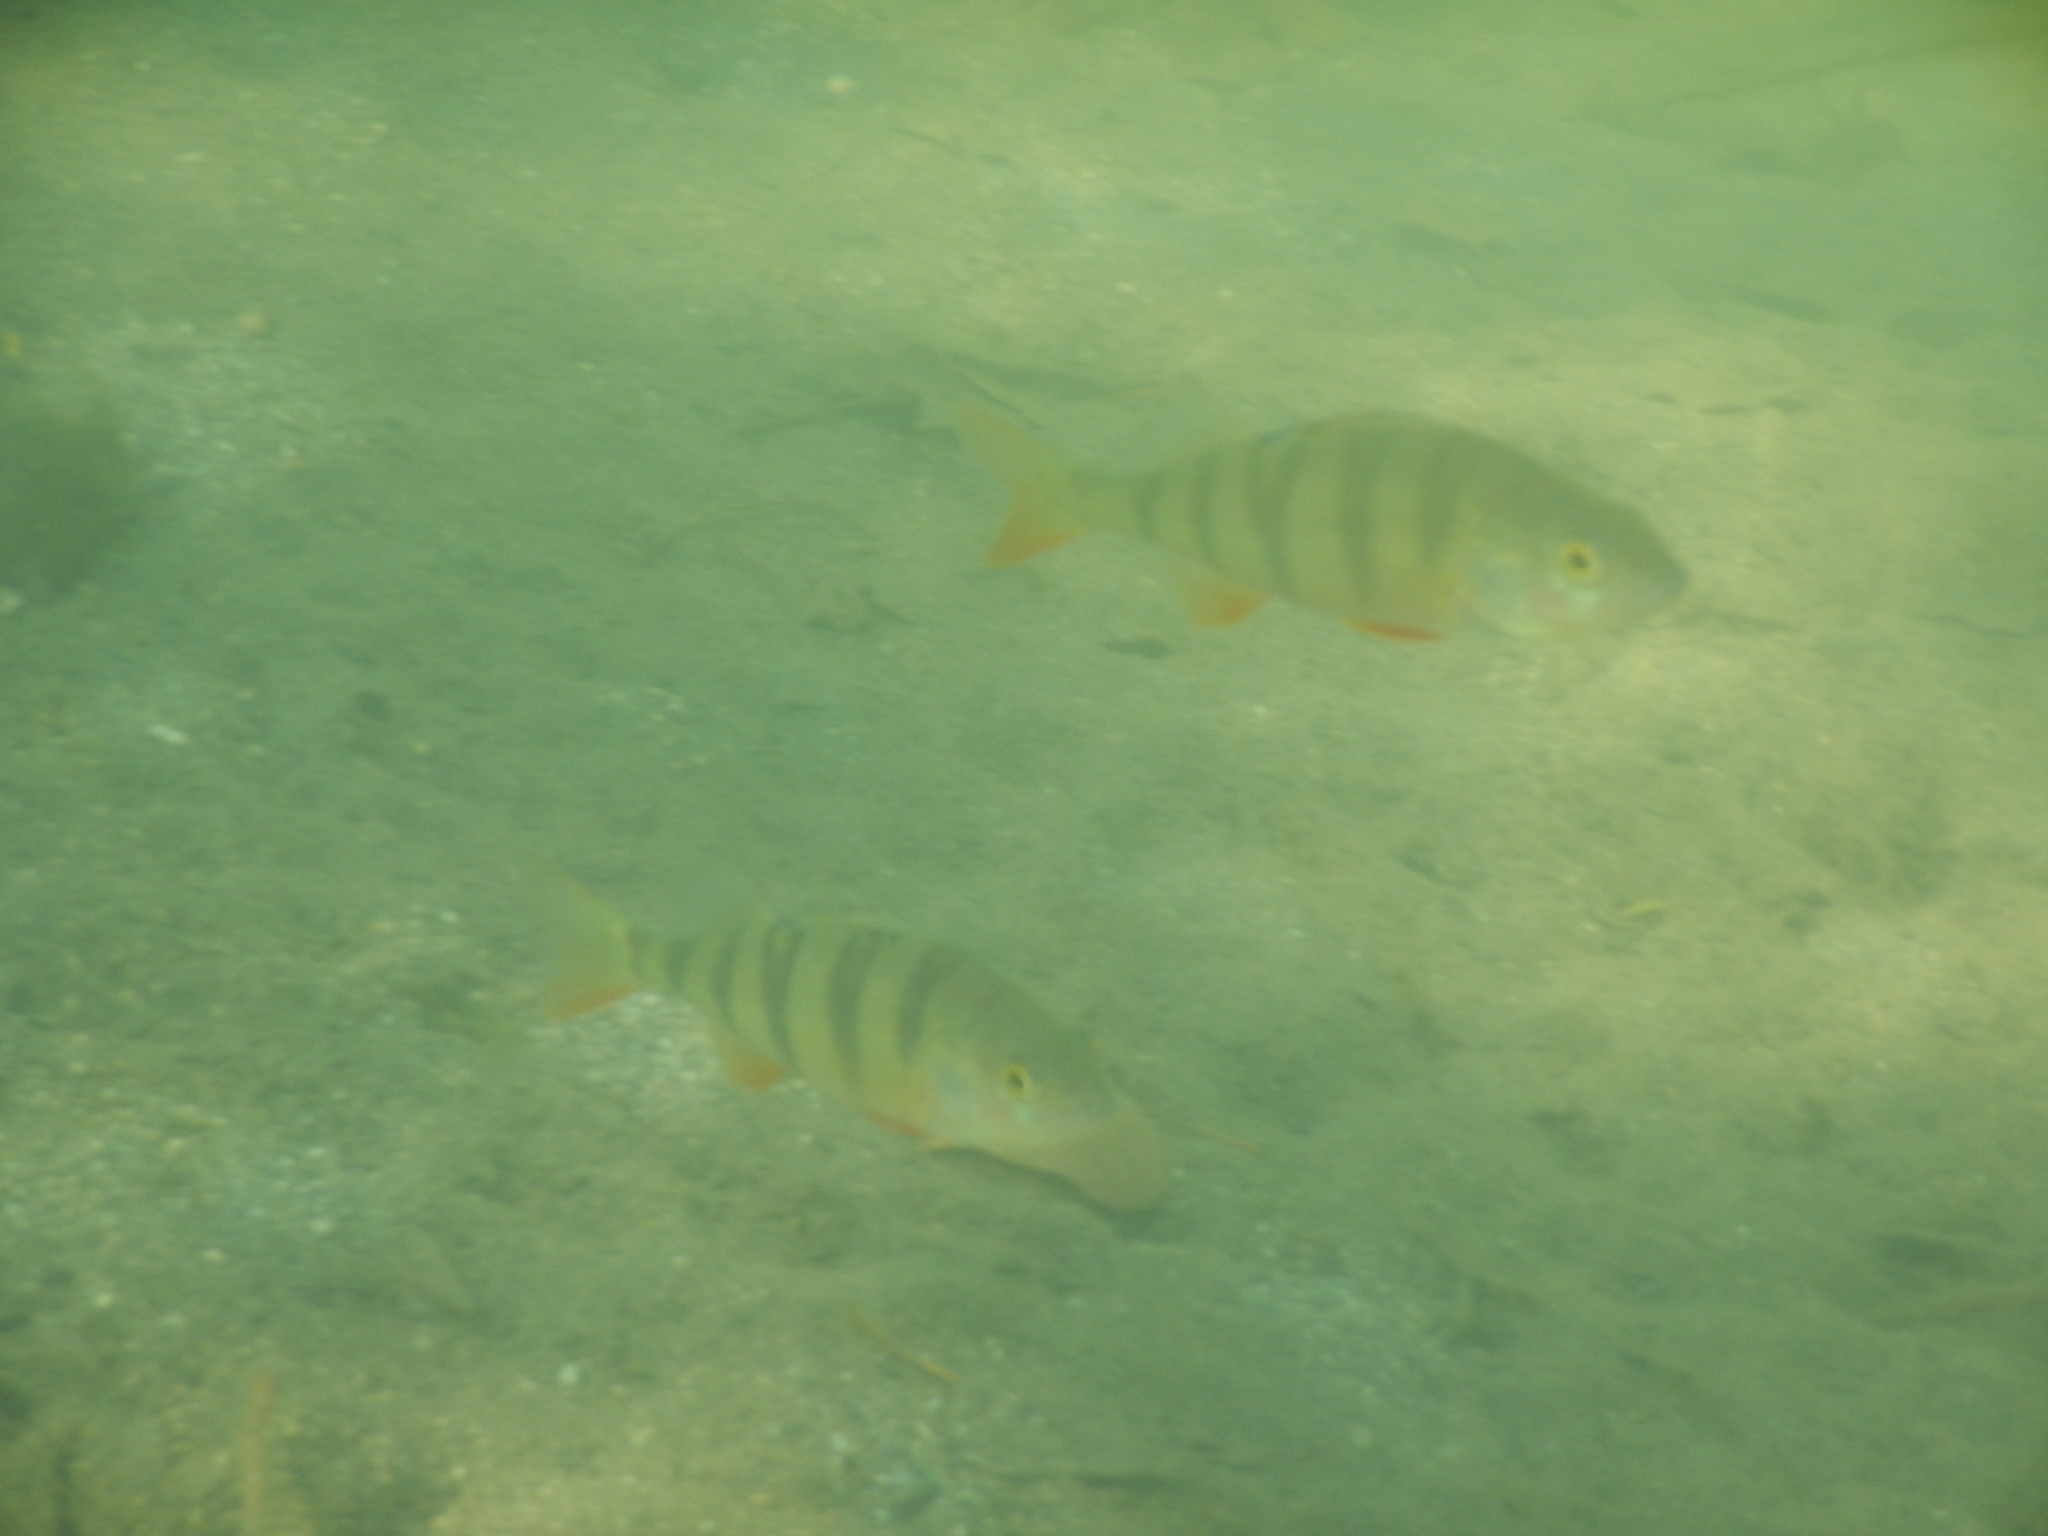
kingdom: Animalia
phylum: Chordata
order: Perciformes
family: Percidae
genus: Perca
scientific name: Perca fluviatilis
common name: Perch
